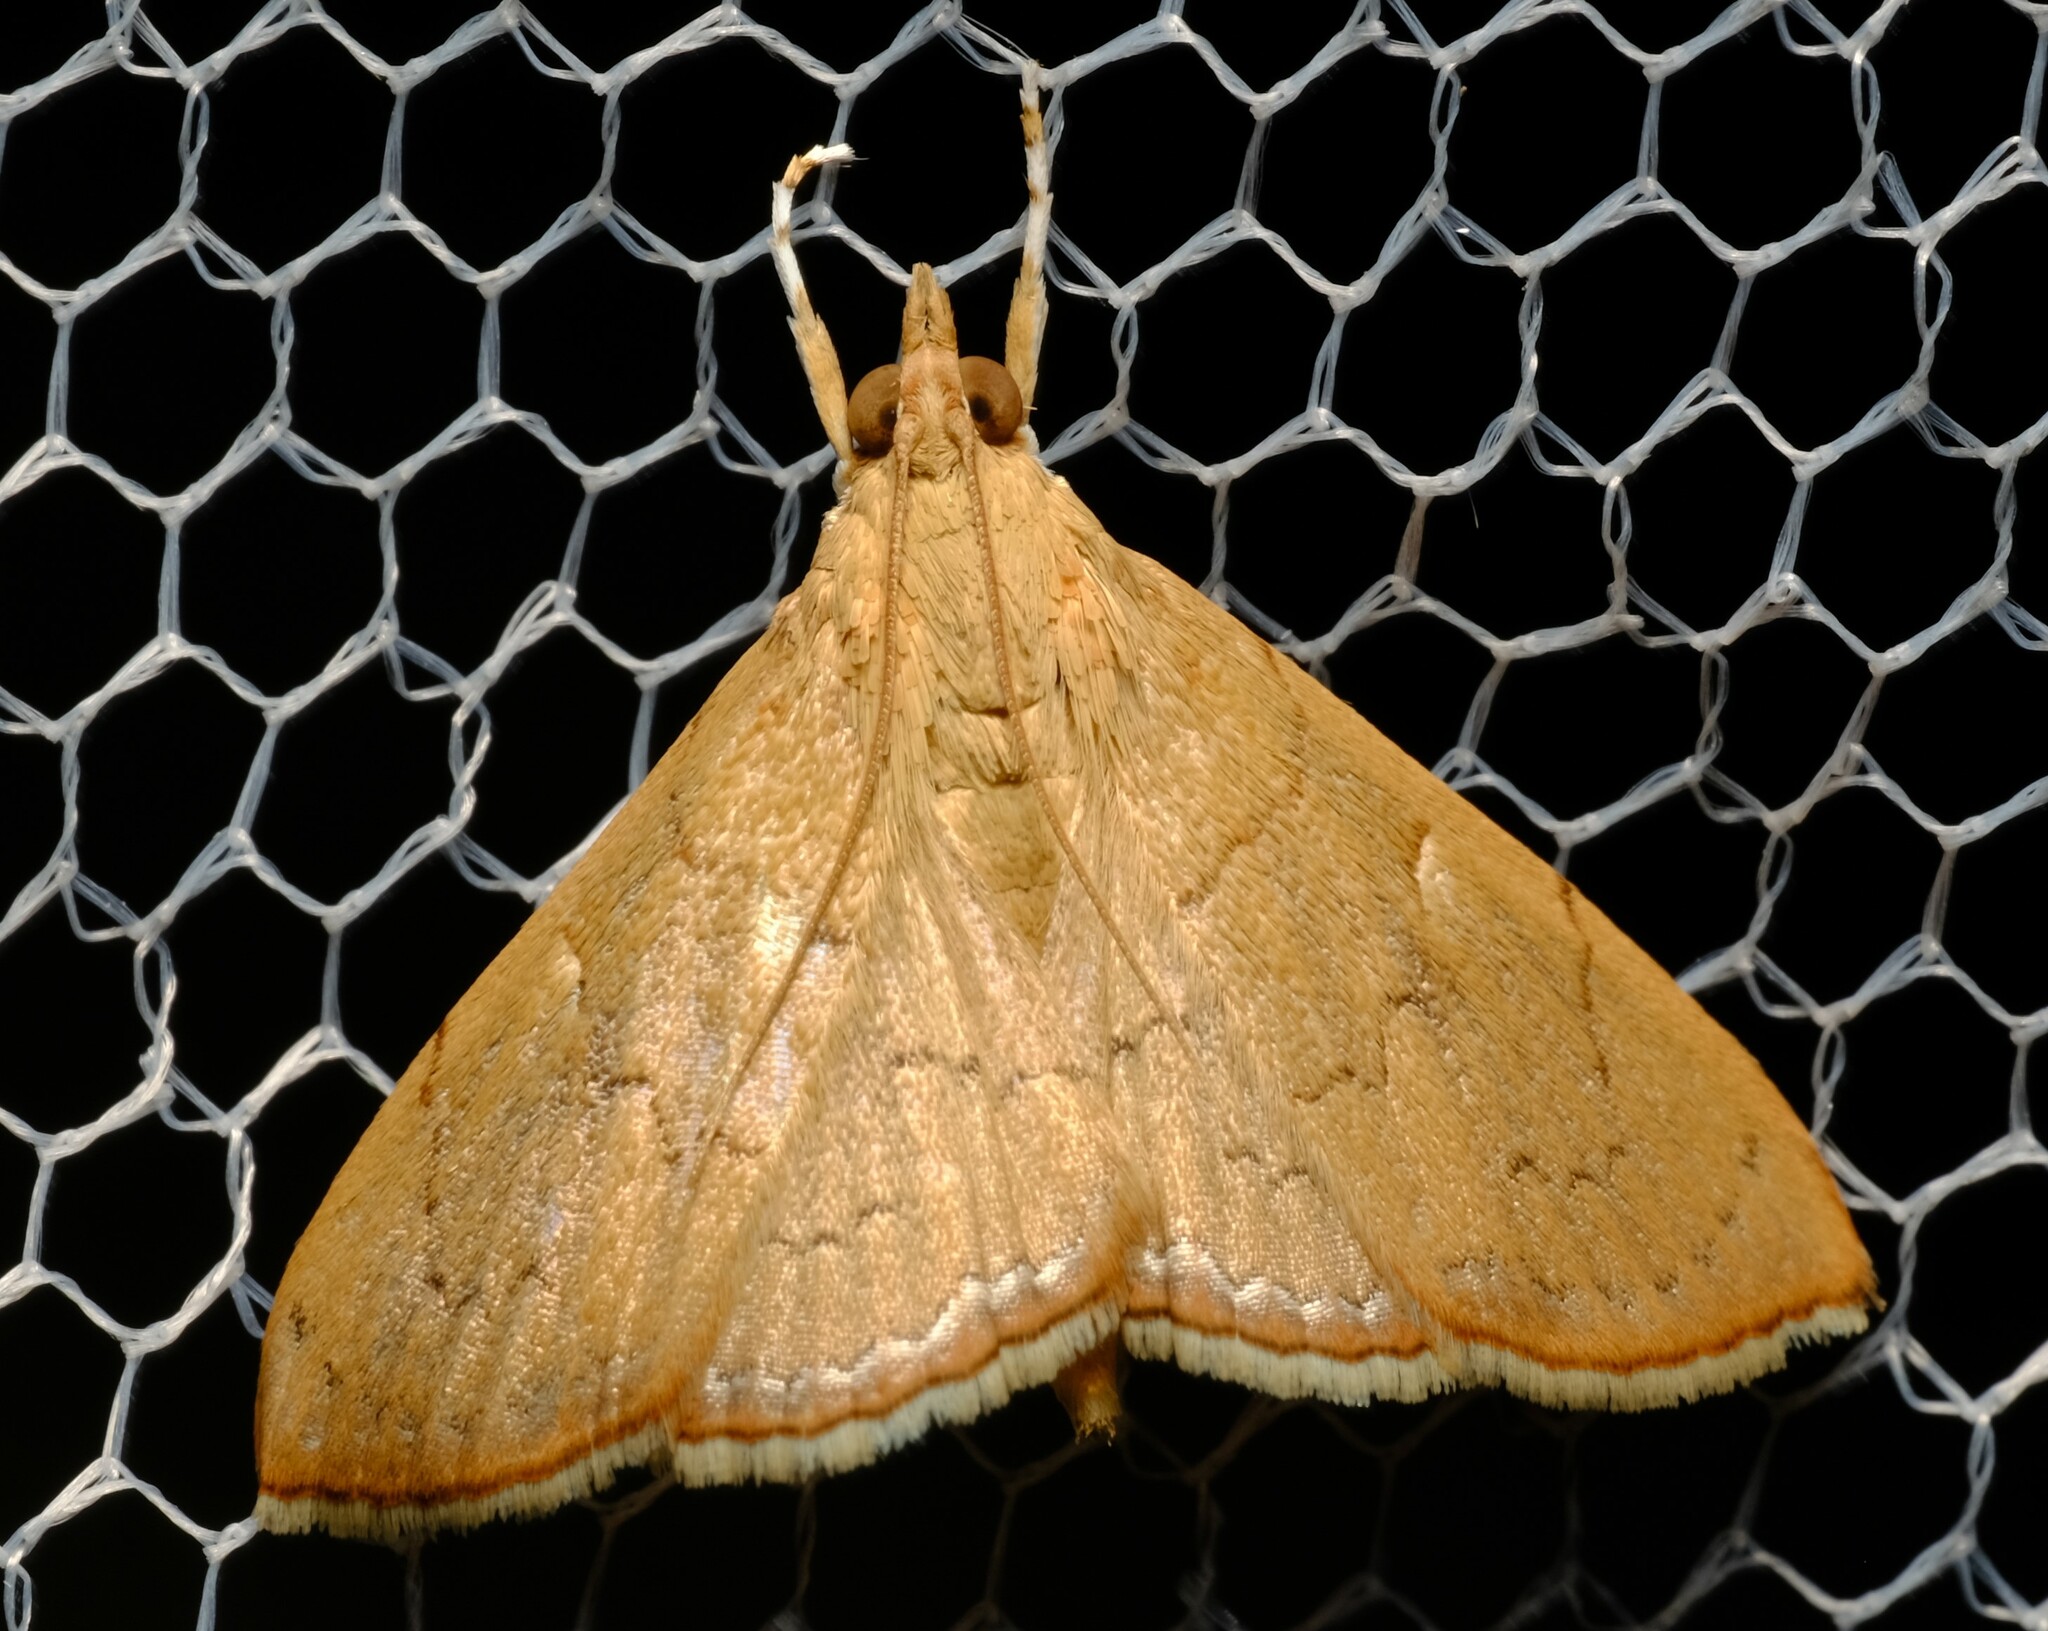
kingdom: Animalia
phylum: Arthropoda
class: Insecta
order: Lepidoptera
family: Crambidae
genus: Hyalobathra
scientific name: Hyalobathra crenulata
